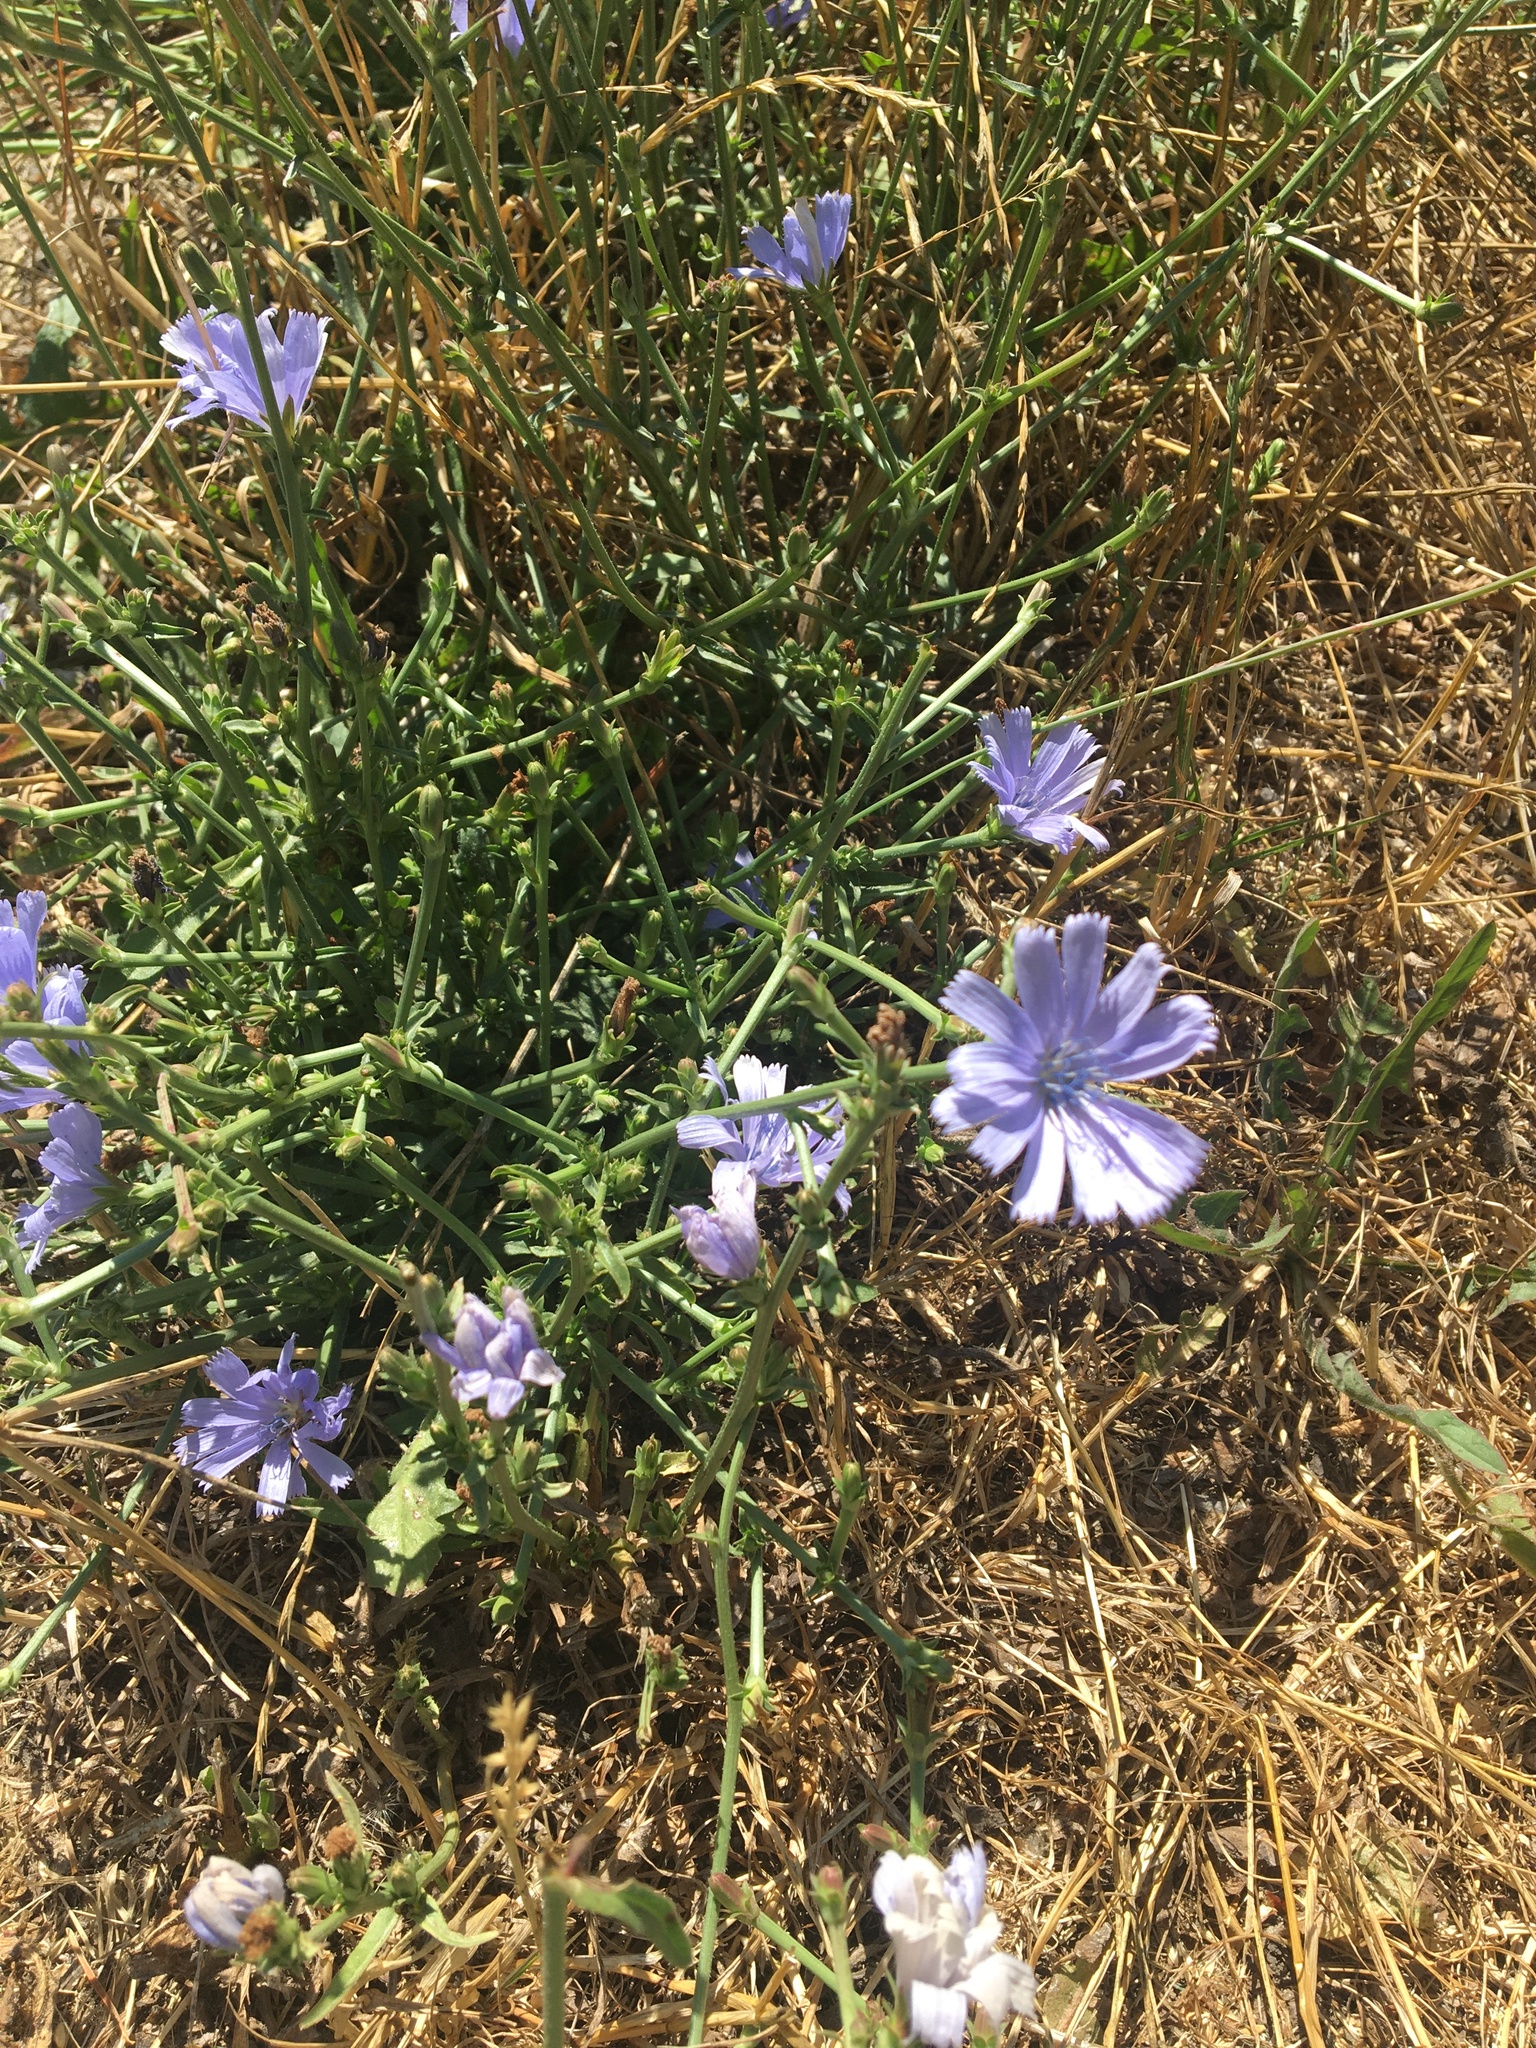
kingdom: Plantae
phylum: Tracheophyta
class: Magnoliopsida
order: Asterales
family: Asteraceae
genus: Cichorium
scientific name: Cichorium intybus
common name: Chicory
